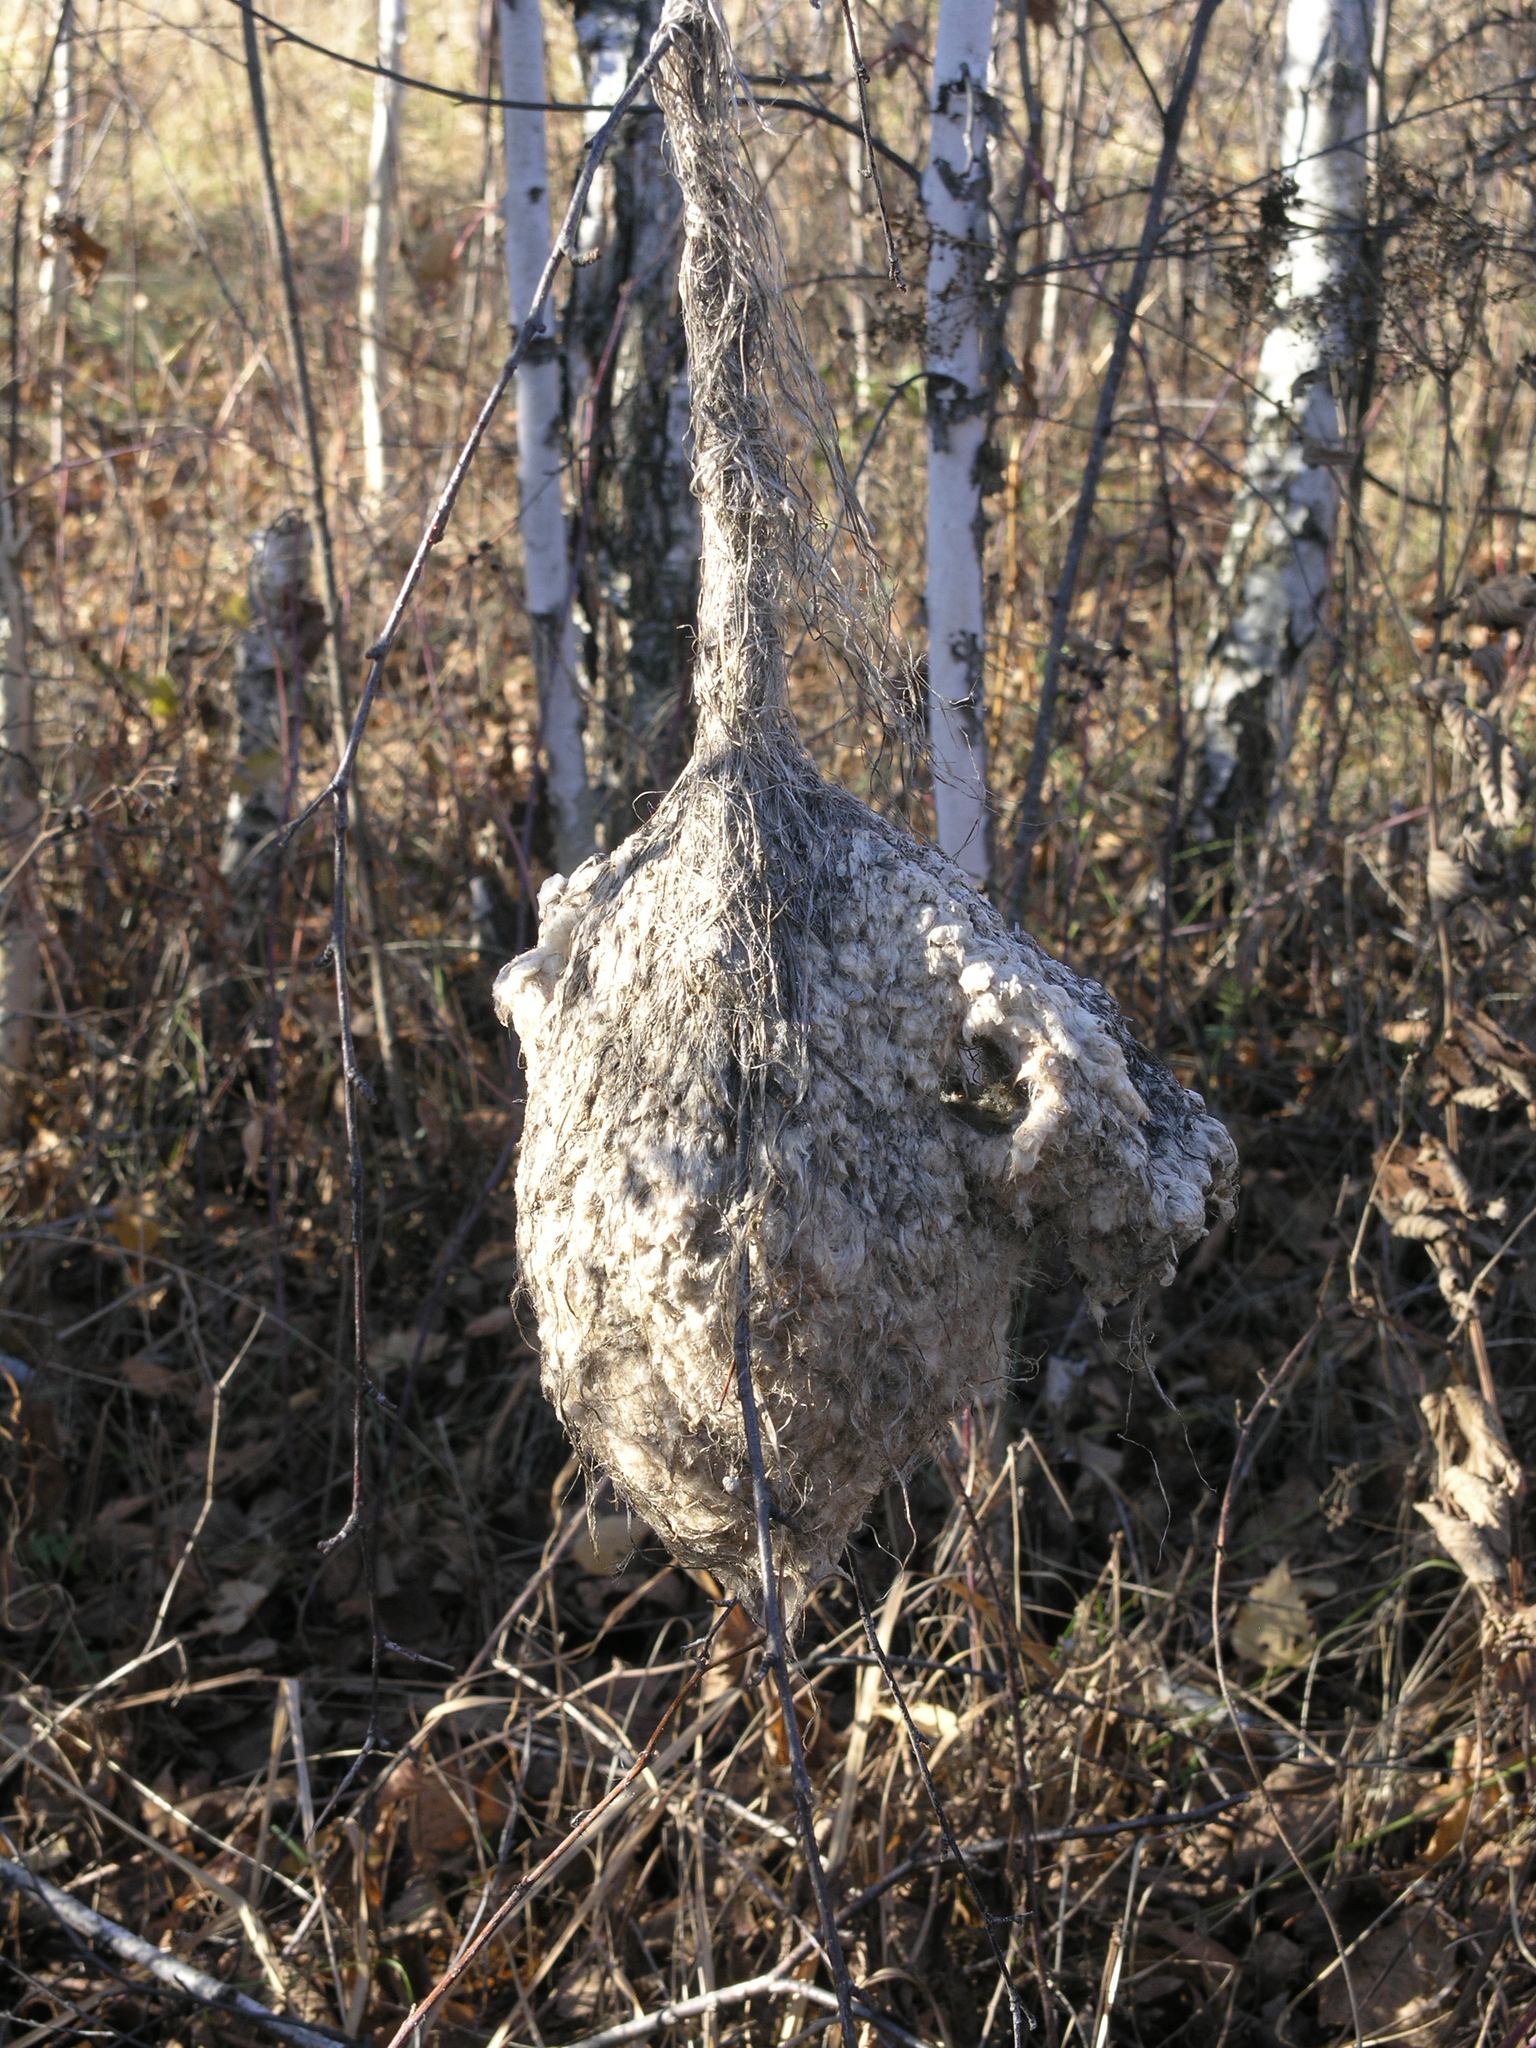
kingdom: Animalia
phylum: Chordata
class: Aves
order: Passeriformes
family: Remizidae
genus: Remiz
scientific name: Remiz pendulinus
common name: Eurasian penduline tit
